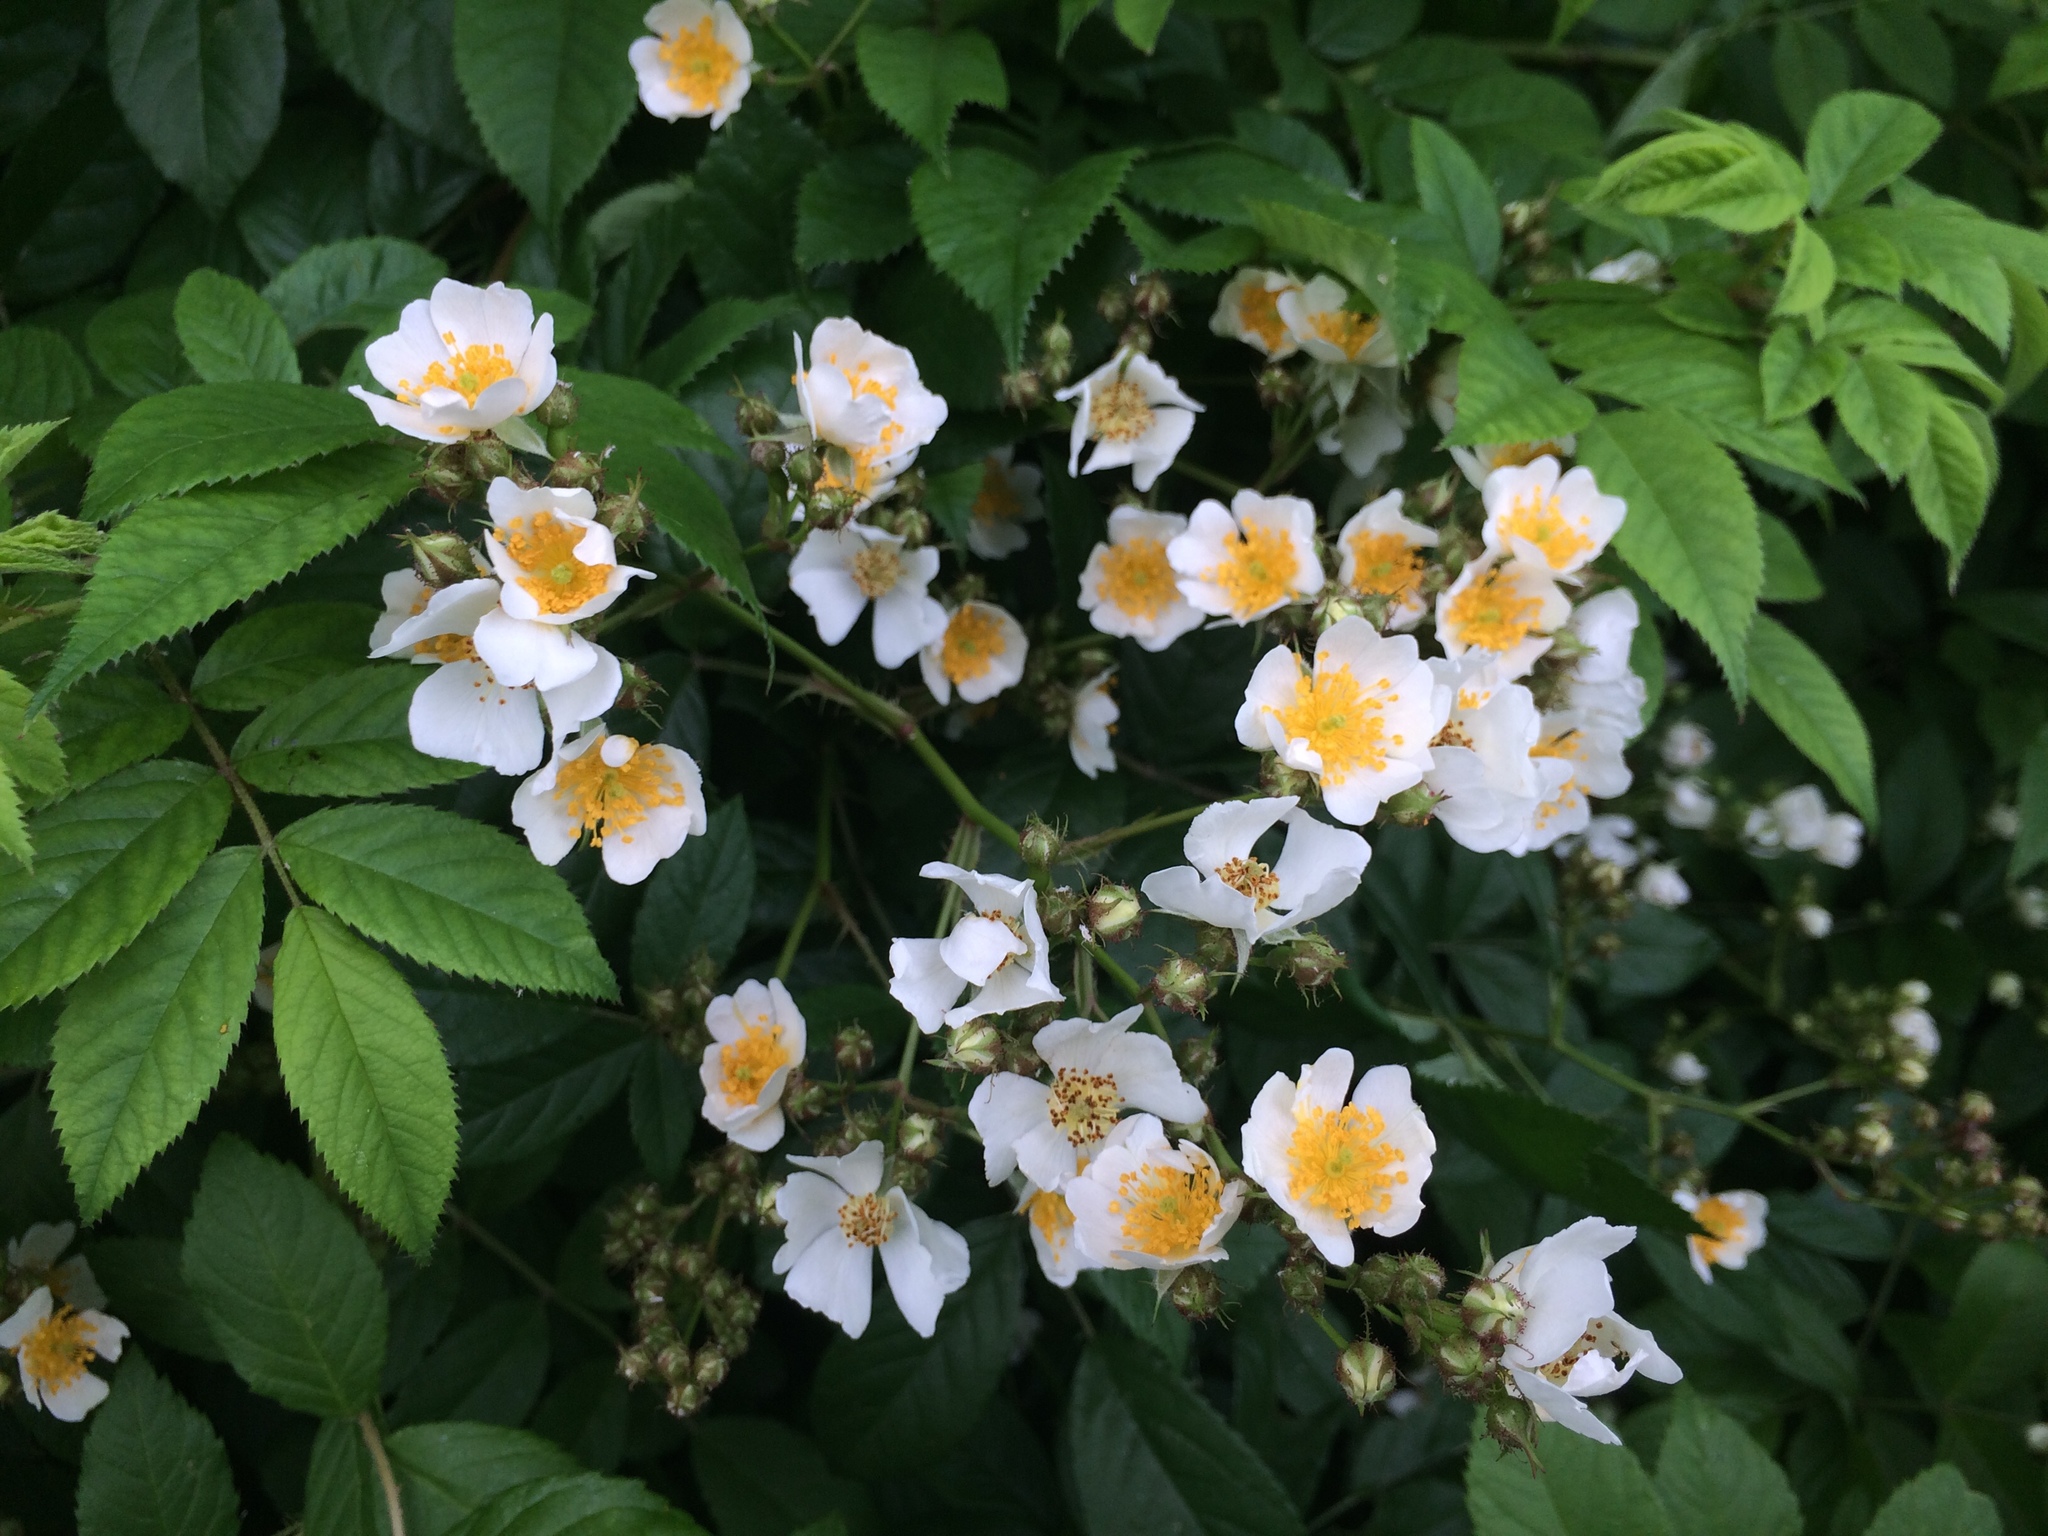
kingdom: Plantae
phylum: Tracheophyta
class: Magnoliopsida
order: Rosales
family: Rosaceae
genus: Rosa
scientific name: Rosa multiflora
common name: Multiflora rose
